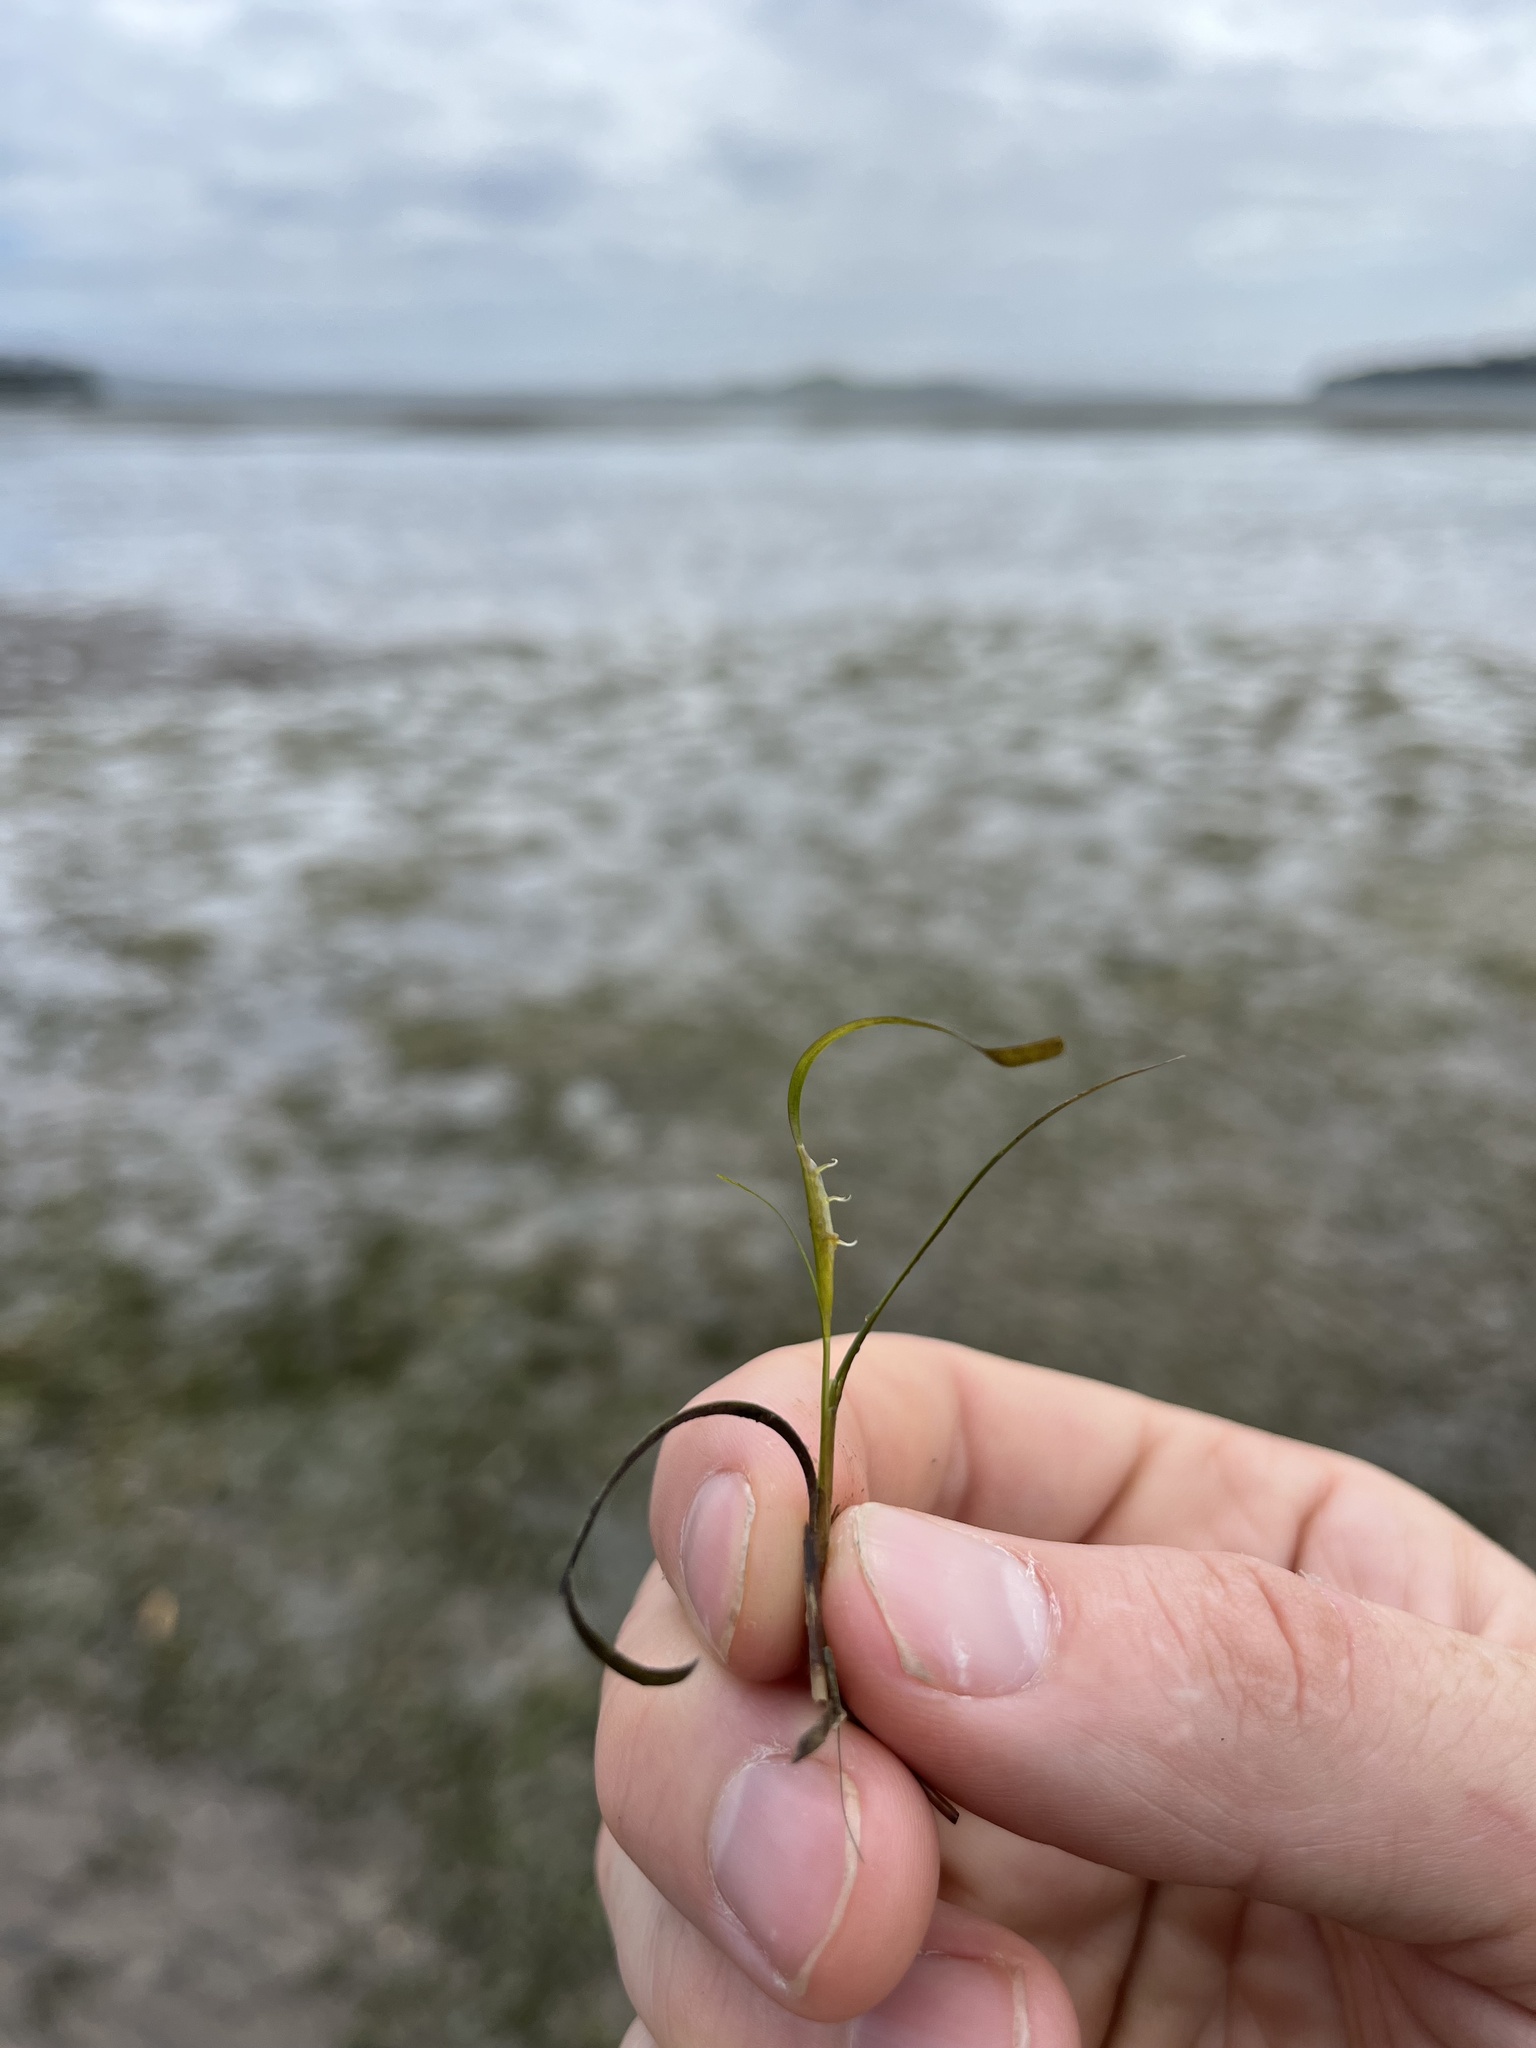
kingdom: Plantae
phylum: Tracheophyta
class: Liliopsida
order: Alismatales
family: Zosteraceae
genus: Zostera
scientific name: Zostera muelleri
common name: Species code: zc
